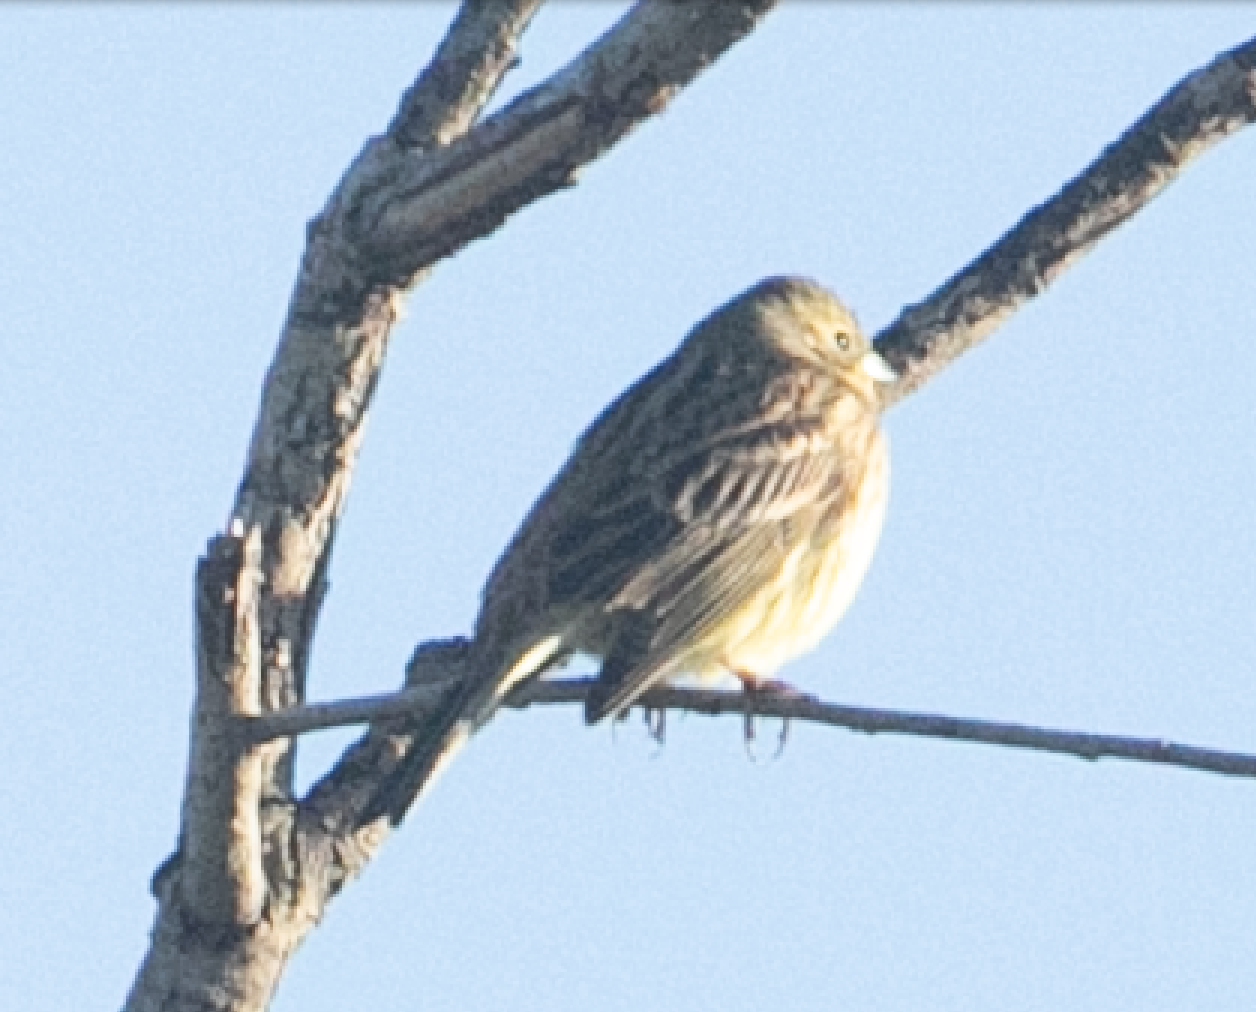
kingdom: Animalia
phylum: Chordata
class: Aves
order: Passeriformes
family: Emberizidae
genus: Emberiza
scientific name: Emberiza citrinella
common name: Yellowhammer
